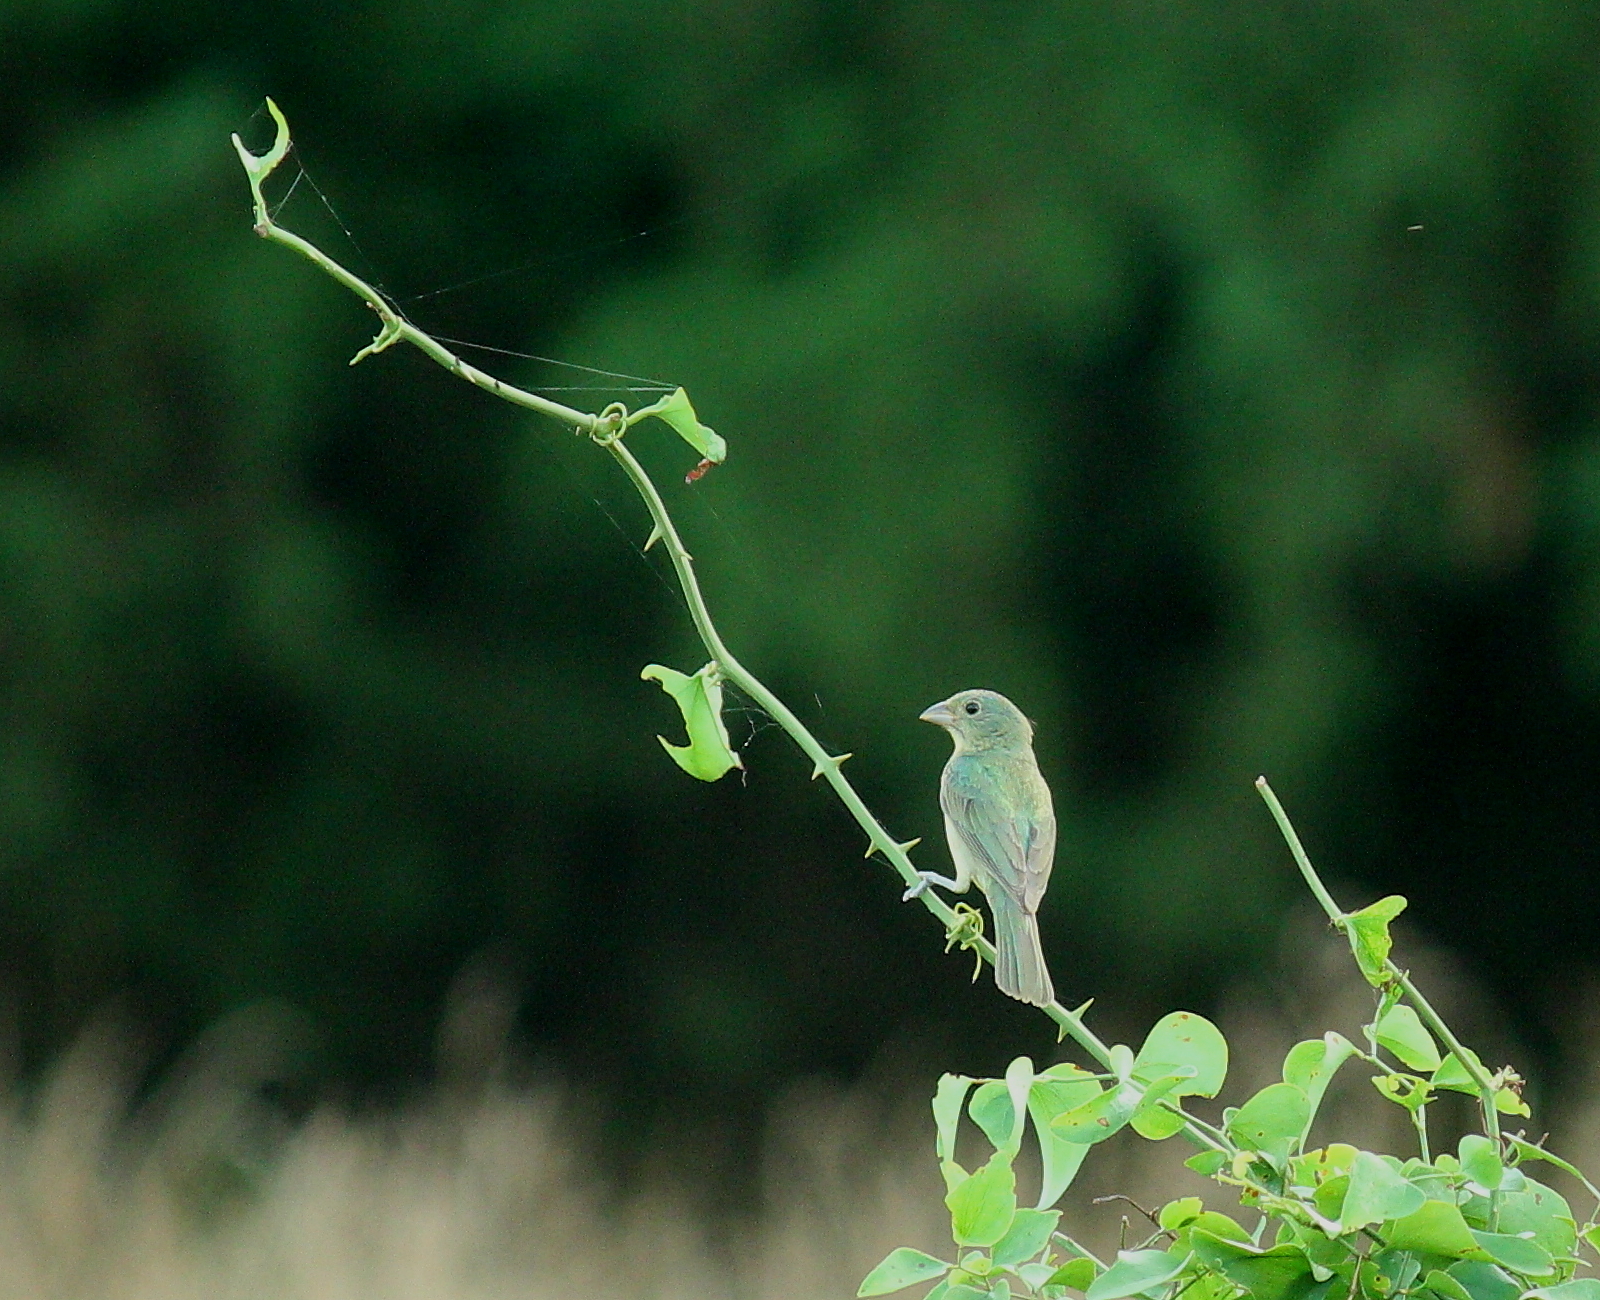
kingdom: Animalia
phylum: Chordata
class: Aves
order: Passeriformes
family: Cardinalidae
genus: Passerina
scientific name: Passerina ciris
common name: Painted bunting
